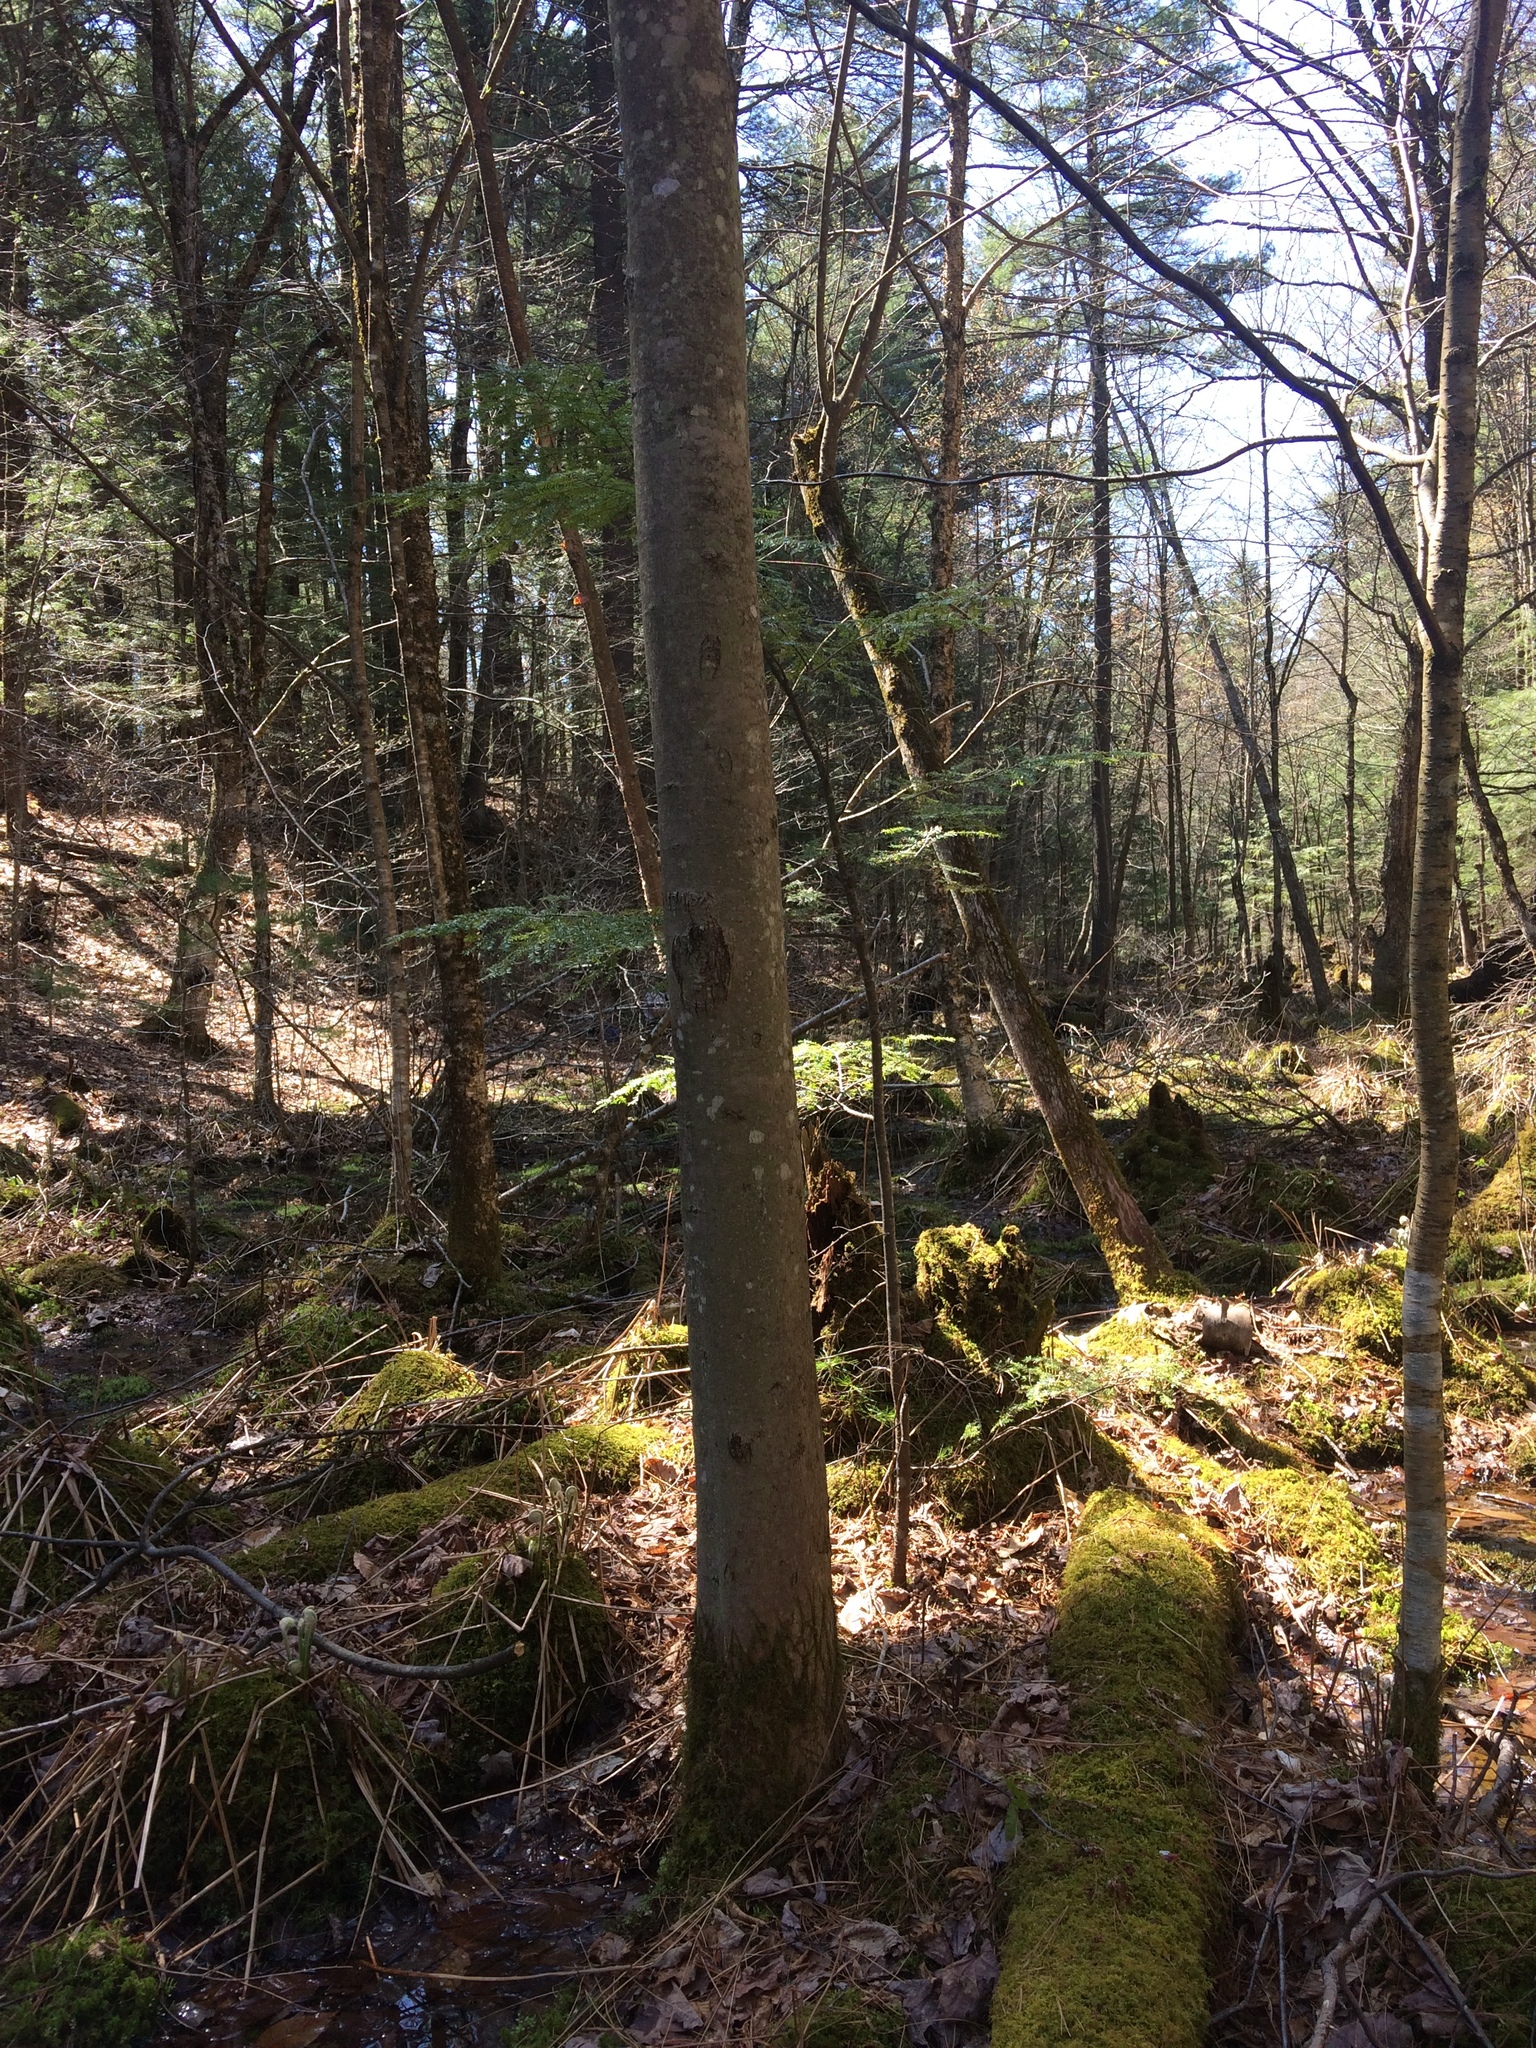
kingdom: Plantae
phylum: Tracheophyta
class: Magnoliopsida
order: Sapindales
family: Sapindaceae
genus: Acer
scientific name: Acer rubrum
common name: Red maple
